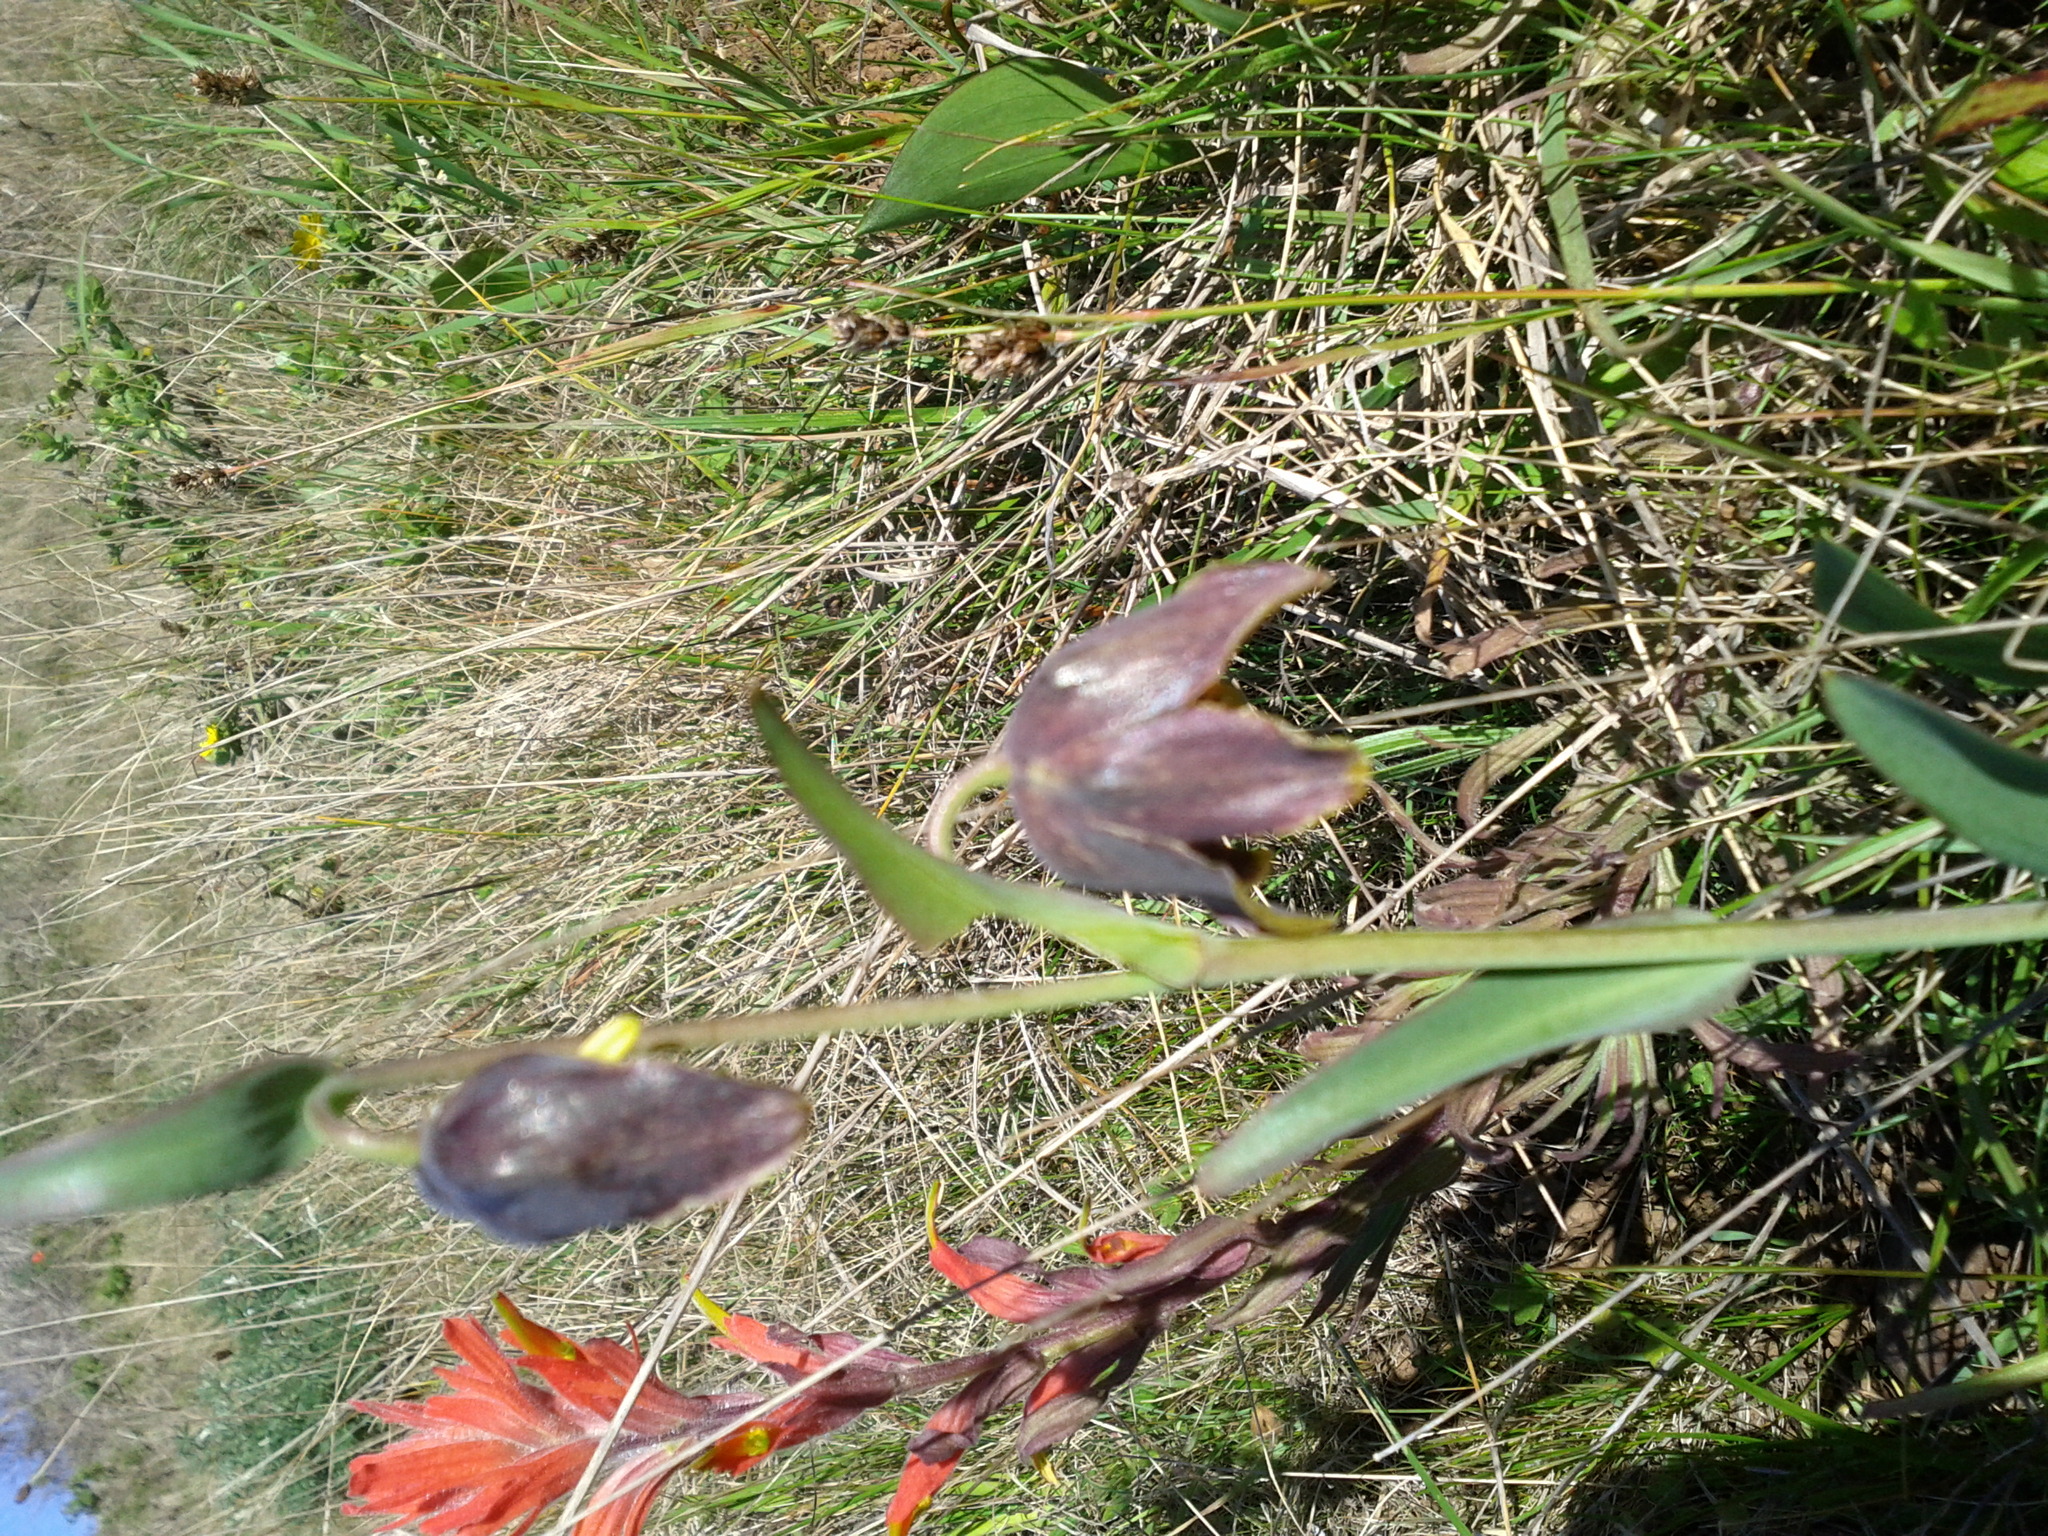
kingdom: Plantae
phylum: Tracheophyta
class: Liliopsida
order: Liliales
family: Liliaceae
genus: Fritillaria
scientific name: Fritillaria affinis
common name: Ojai fritillary
